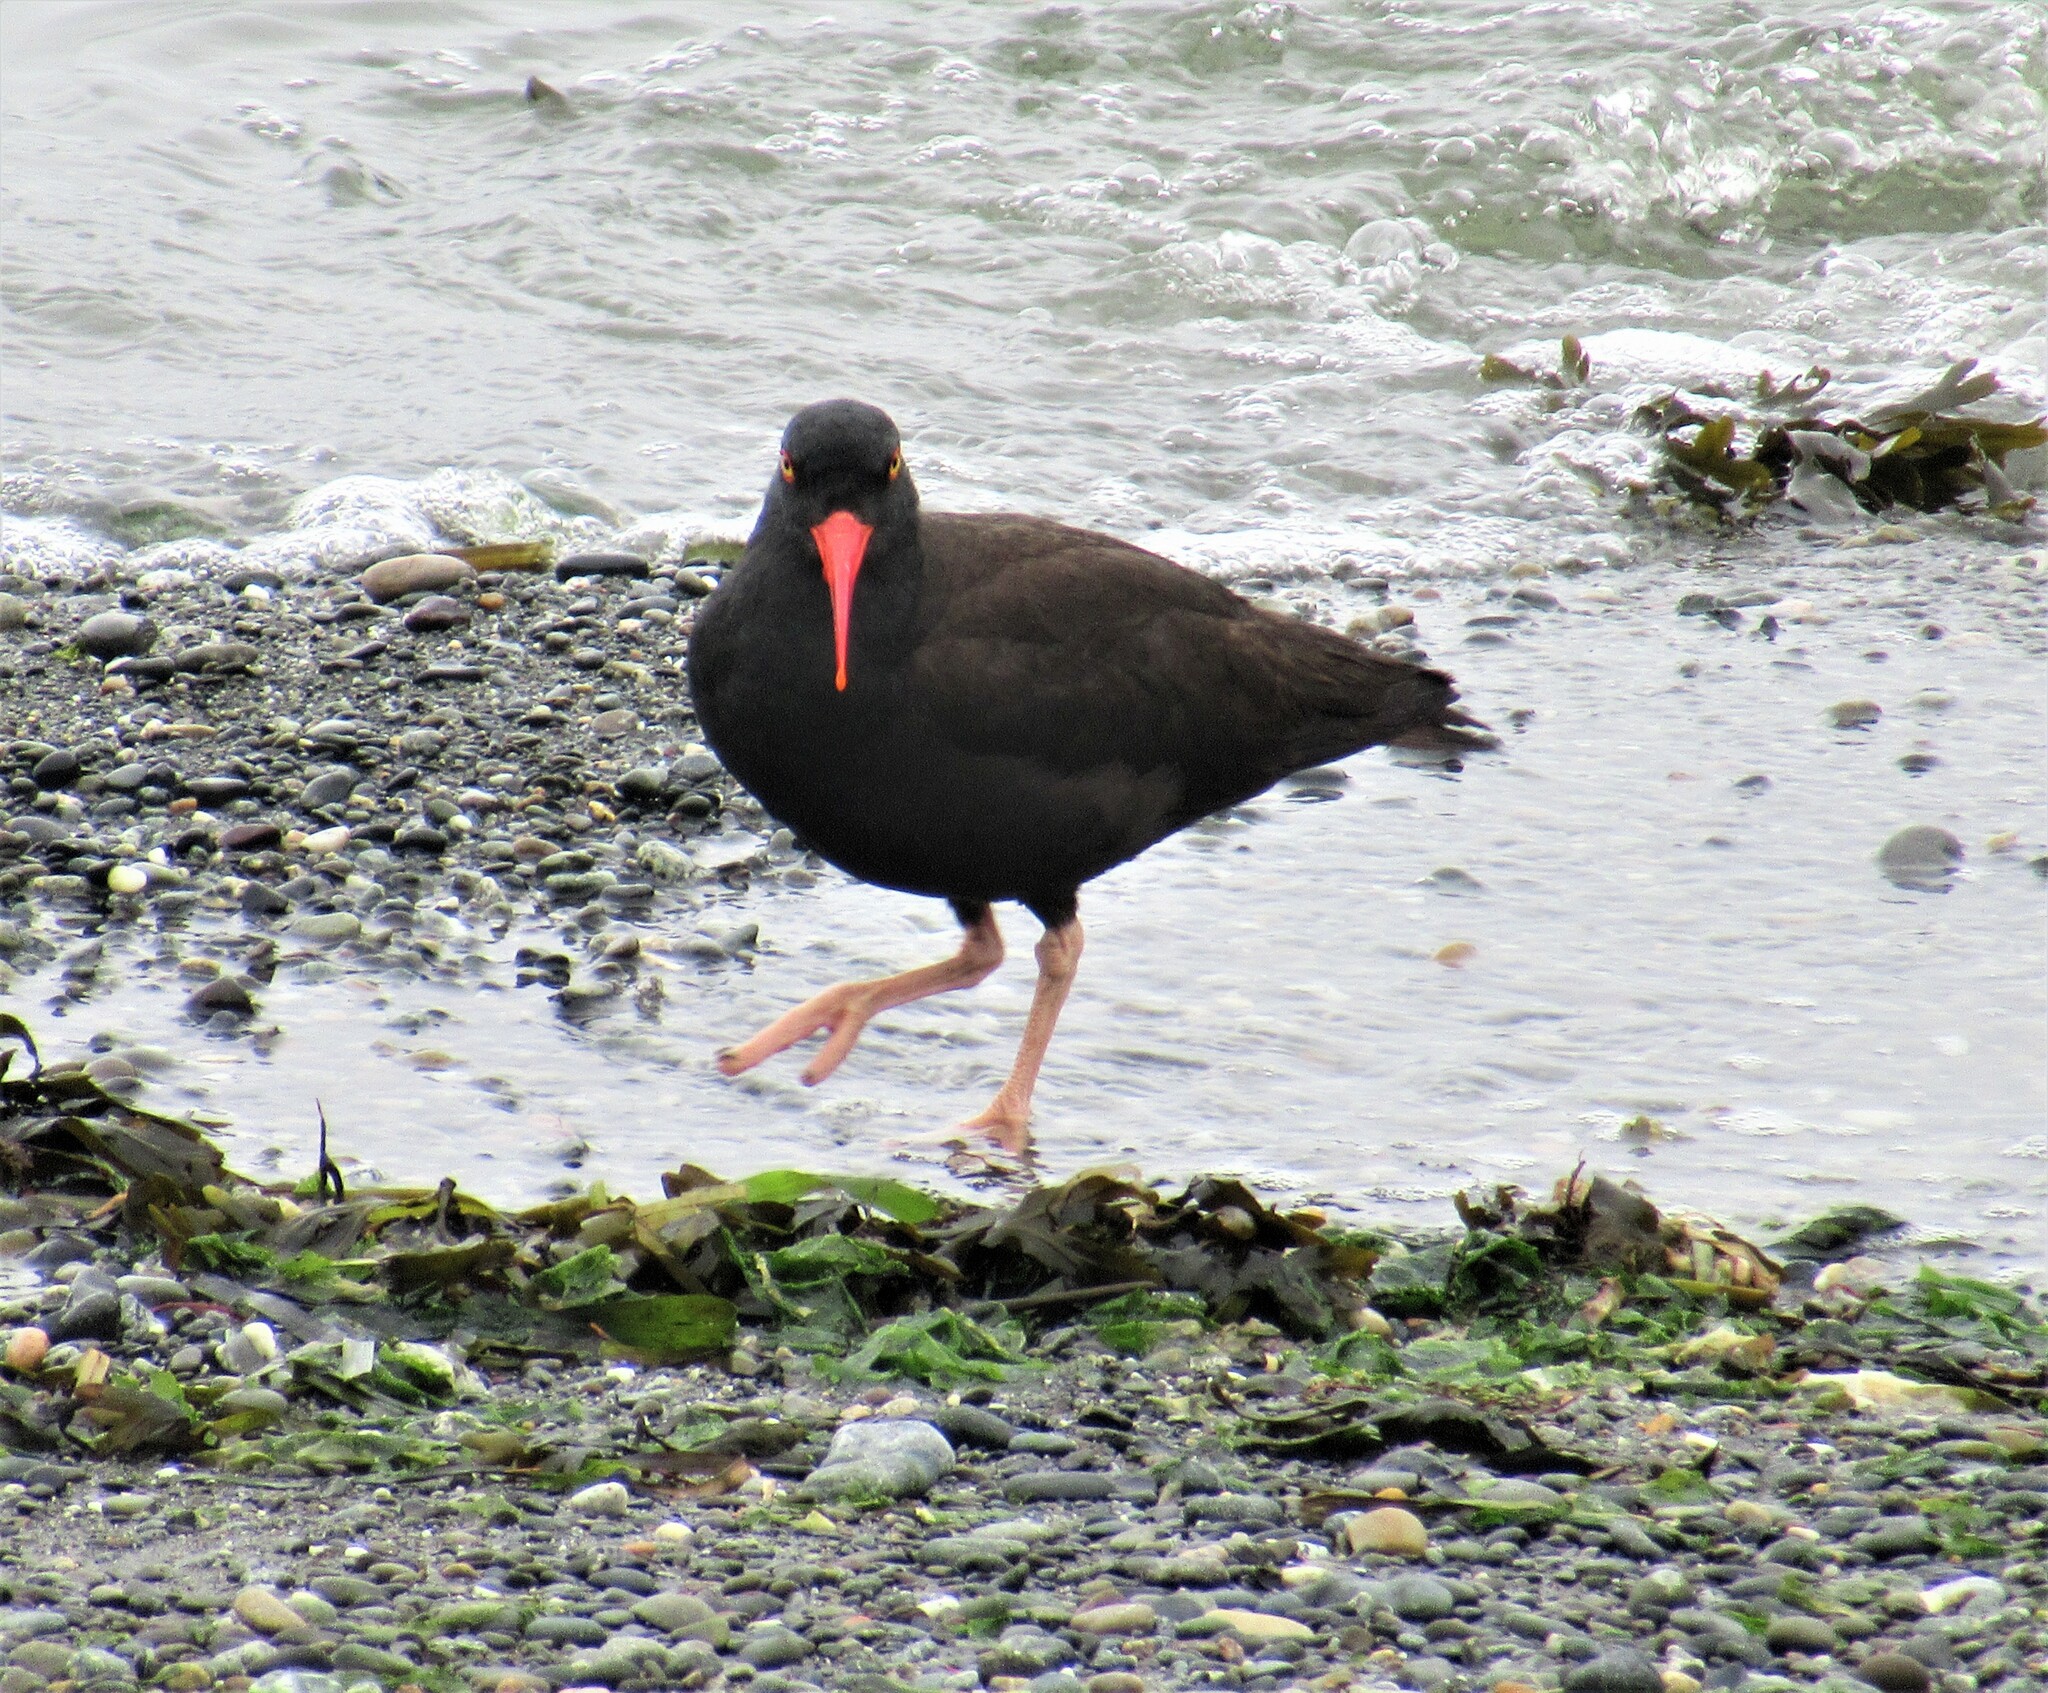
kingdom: Animalia
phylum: Chordata
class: Aves
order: Charadriiformes
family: Haematopodidae
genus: Haematopus
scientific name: Haematopus bachmani
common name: Black oystercatcher
